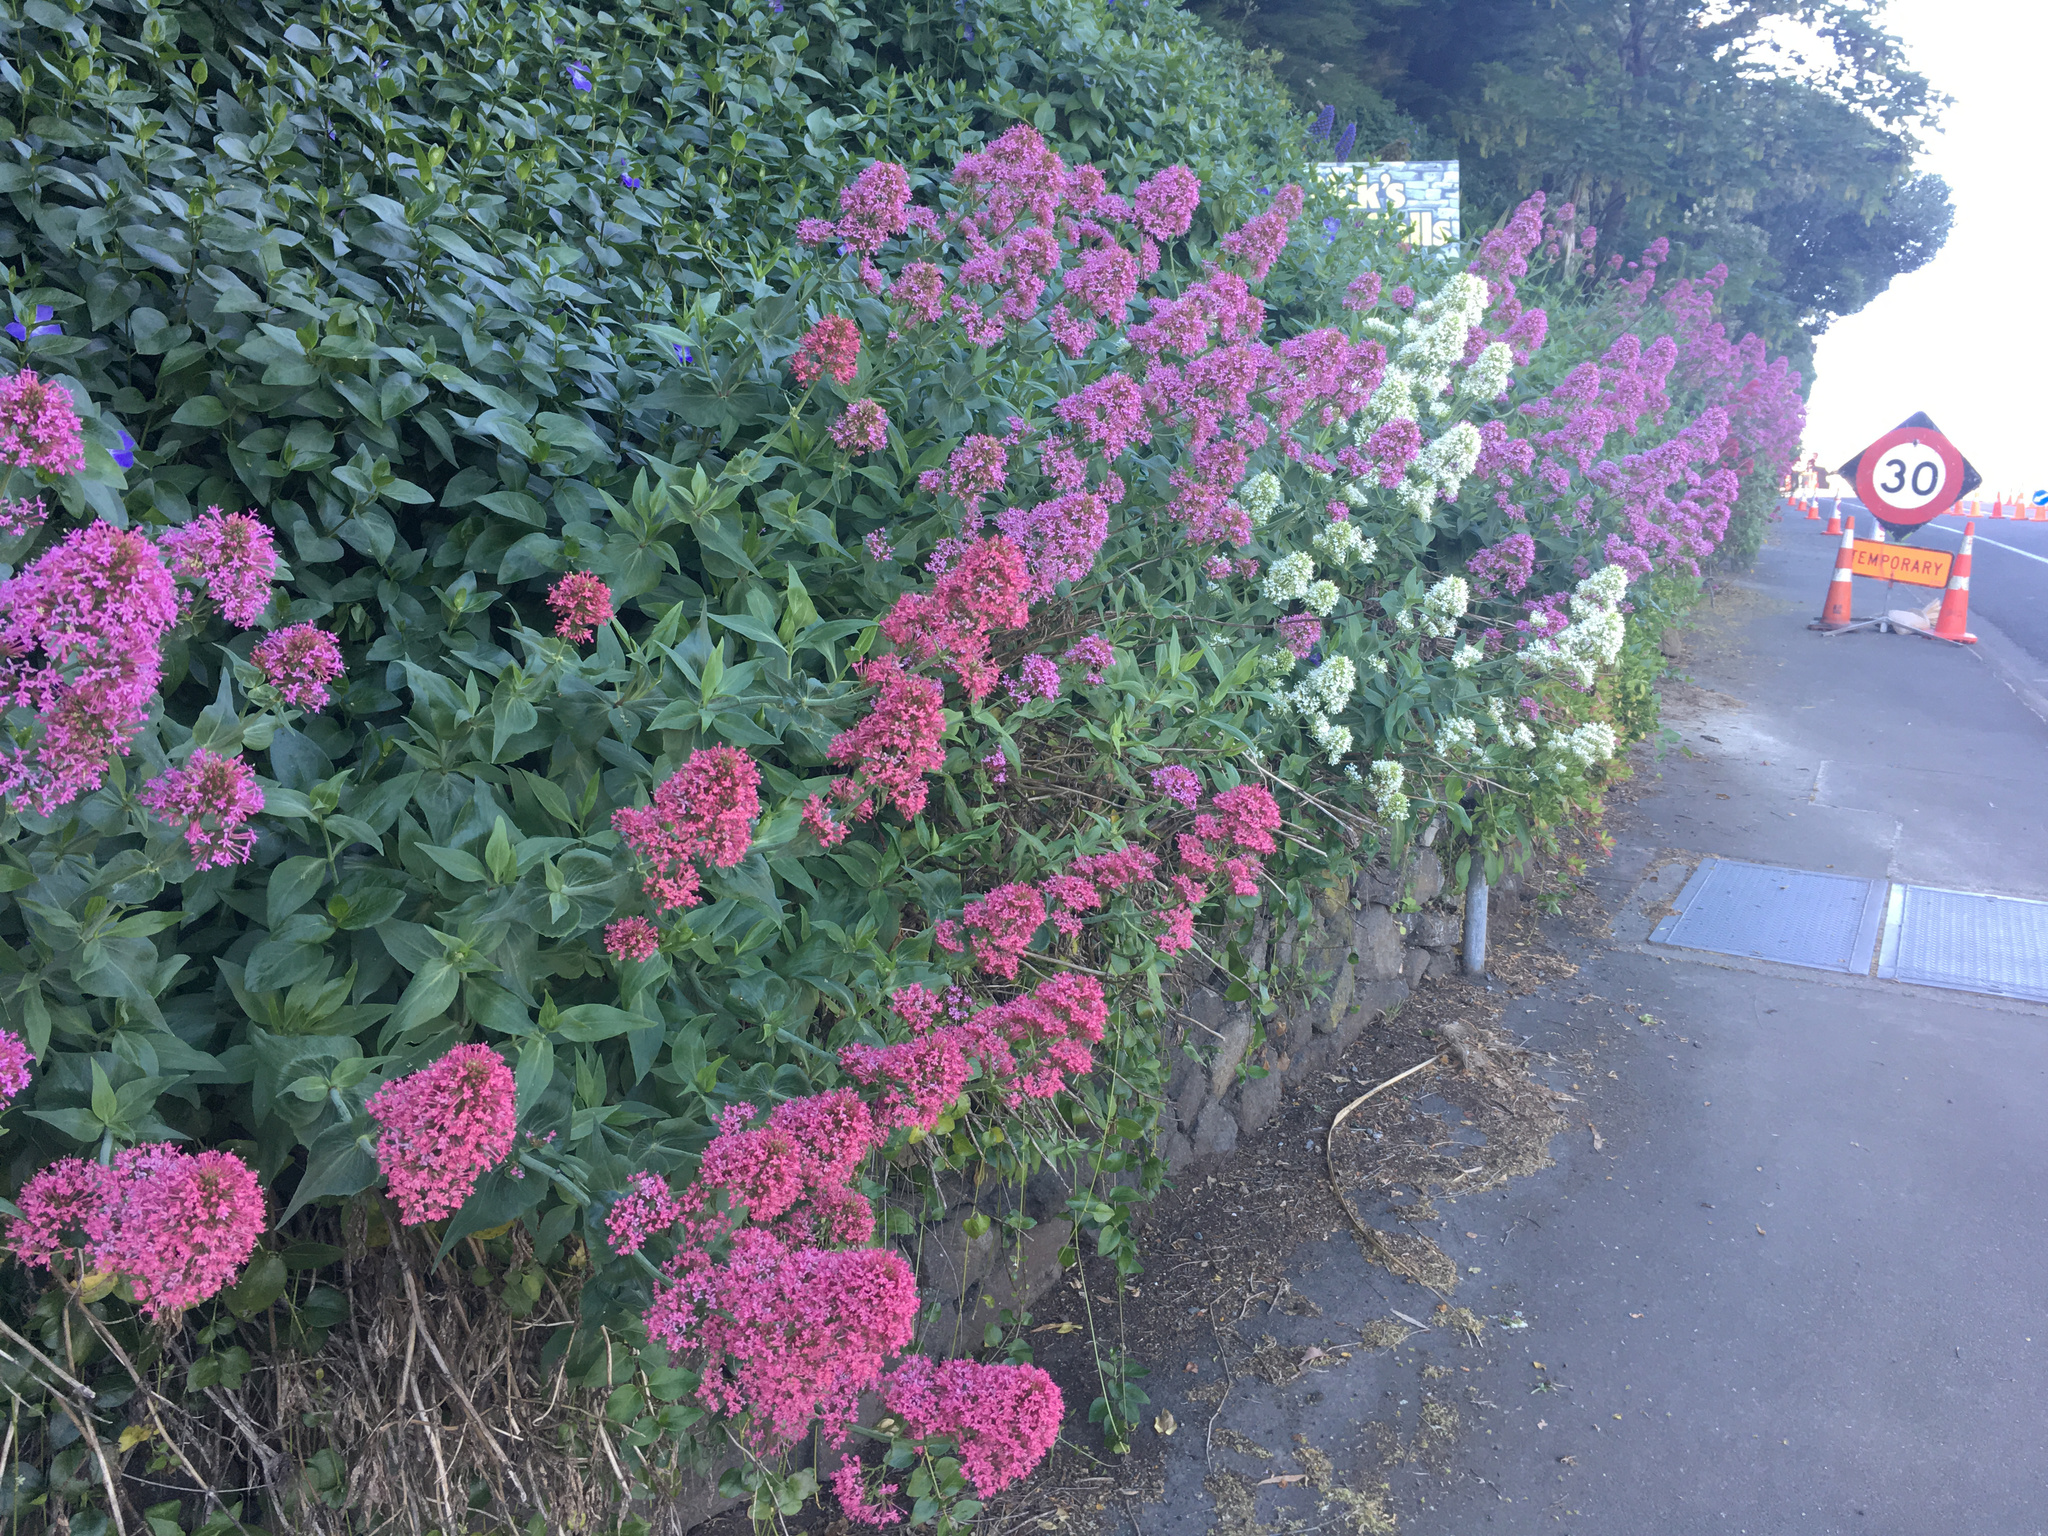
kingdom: Plantae
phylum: Tracheophyta
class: Magnoliopsida
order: Dipsacales
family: Caprifoliaceae
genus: Centranthus
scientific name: Centranthus ruber
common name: Red valerian
